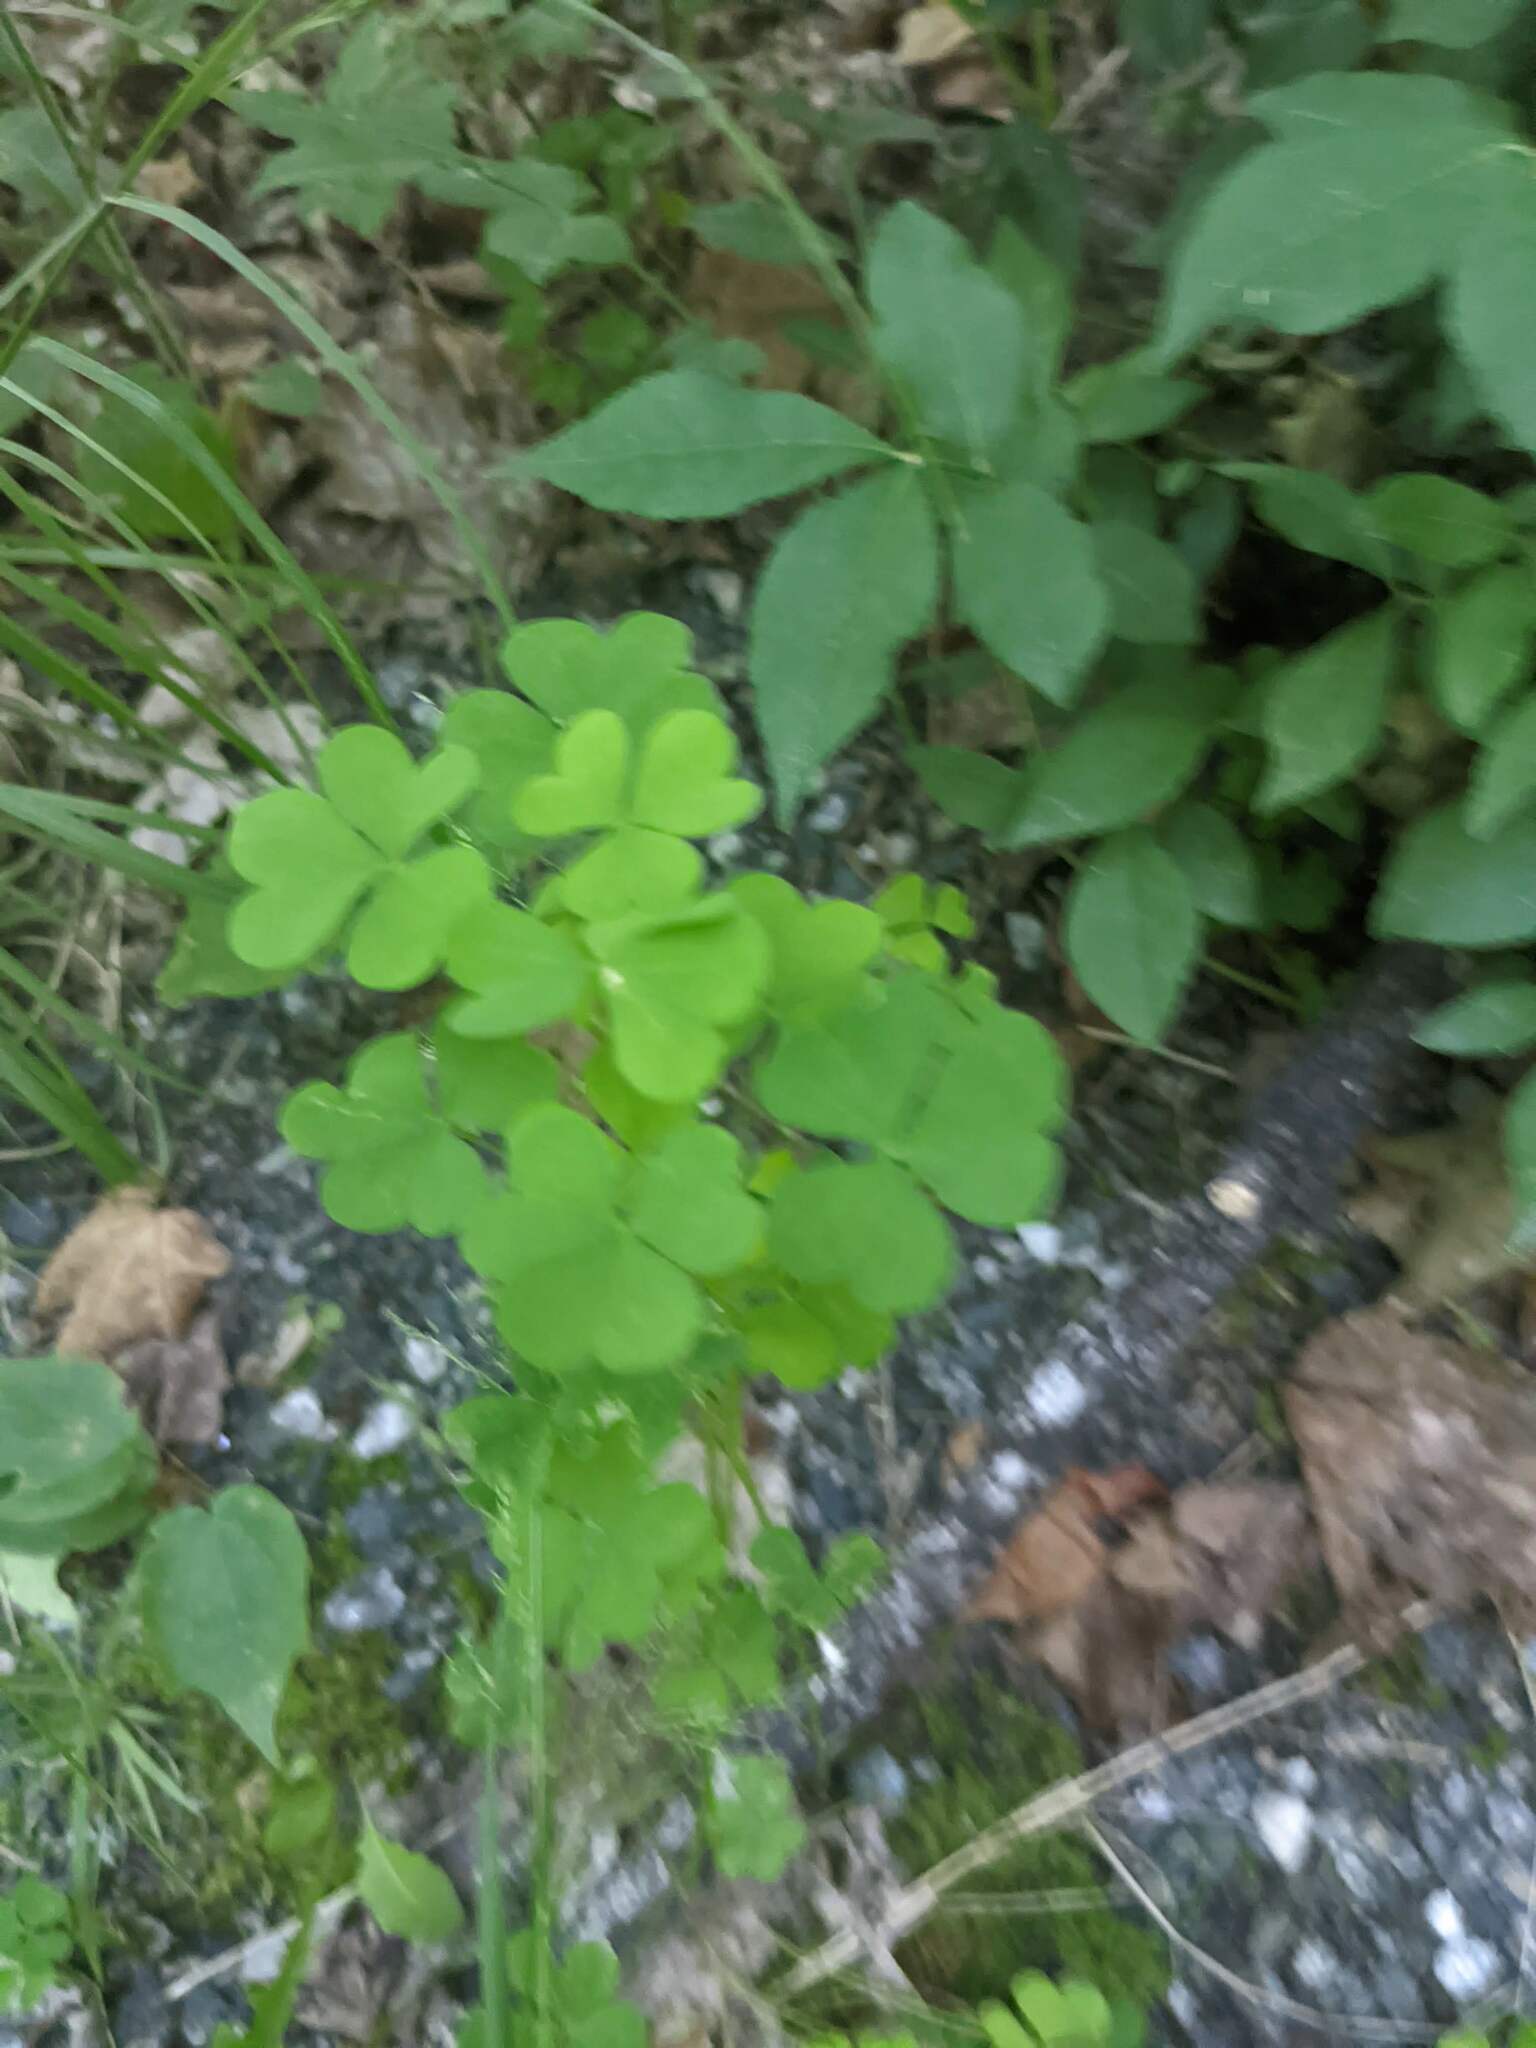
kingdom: Plantae
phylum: Tracheophyta
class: Magnoliopsida
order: Oxalidales
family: Oxalidaceae
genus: Oxalis
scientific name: Oxalis
